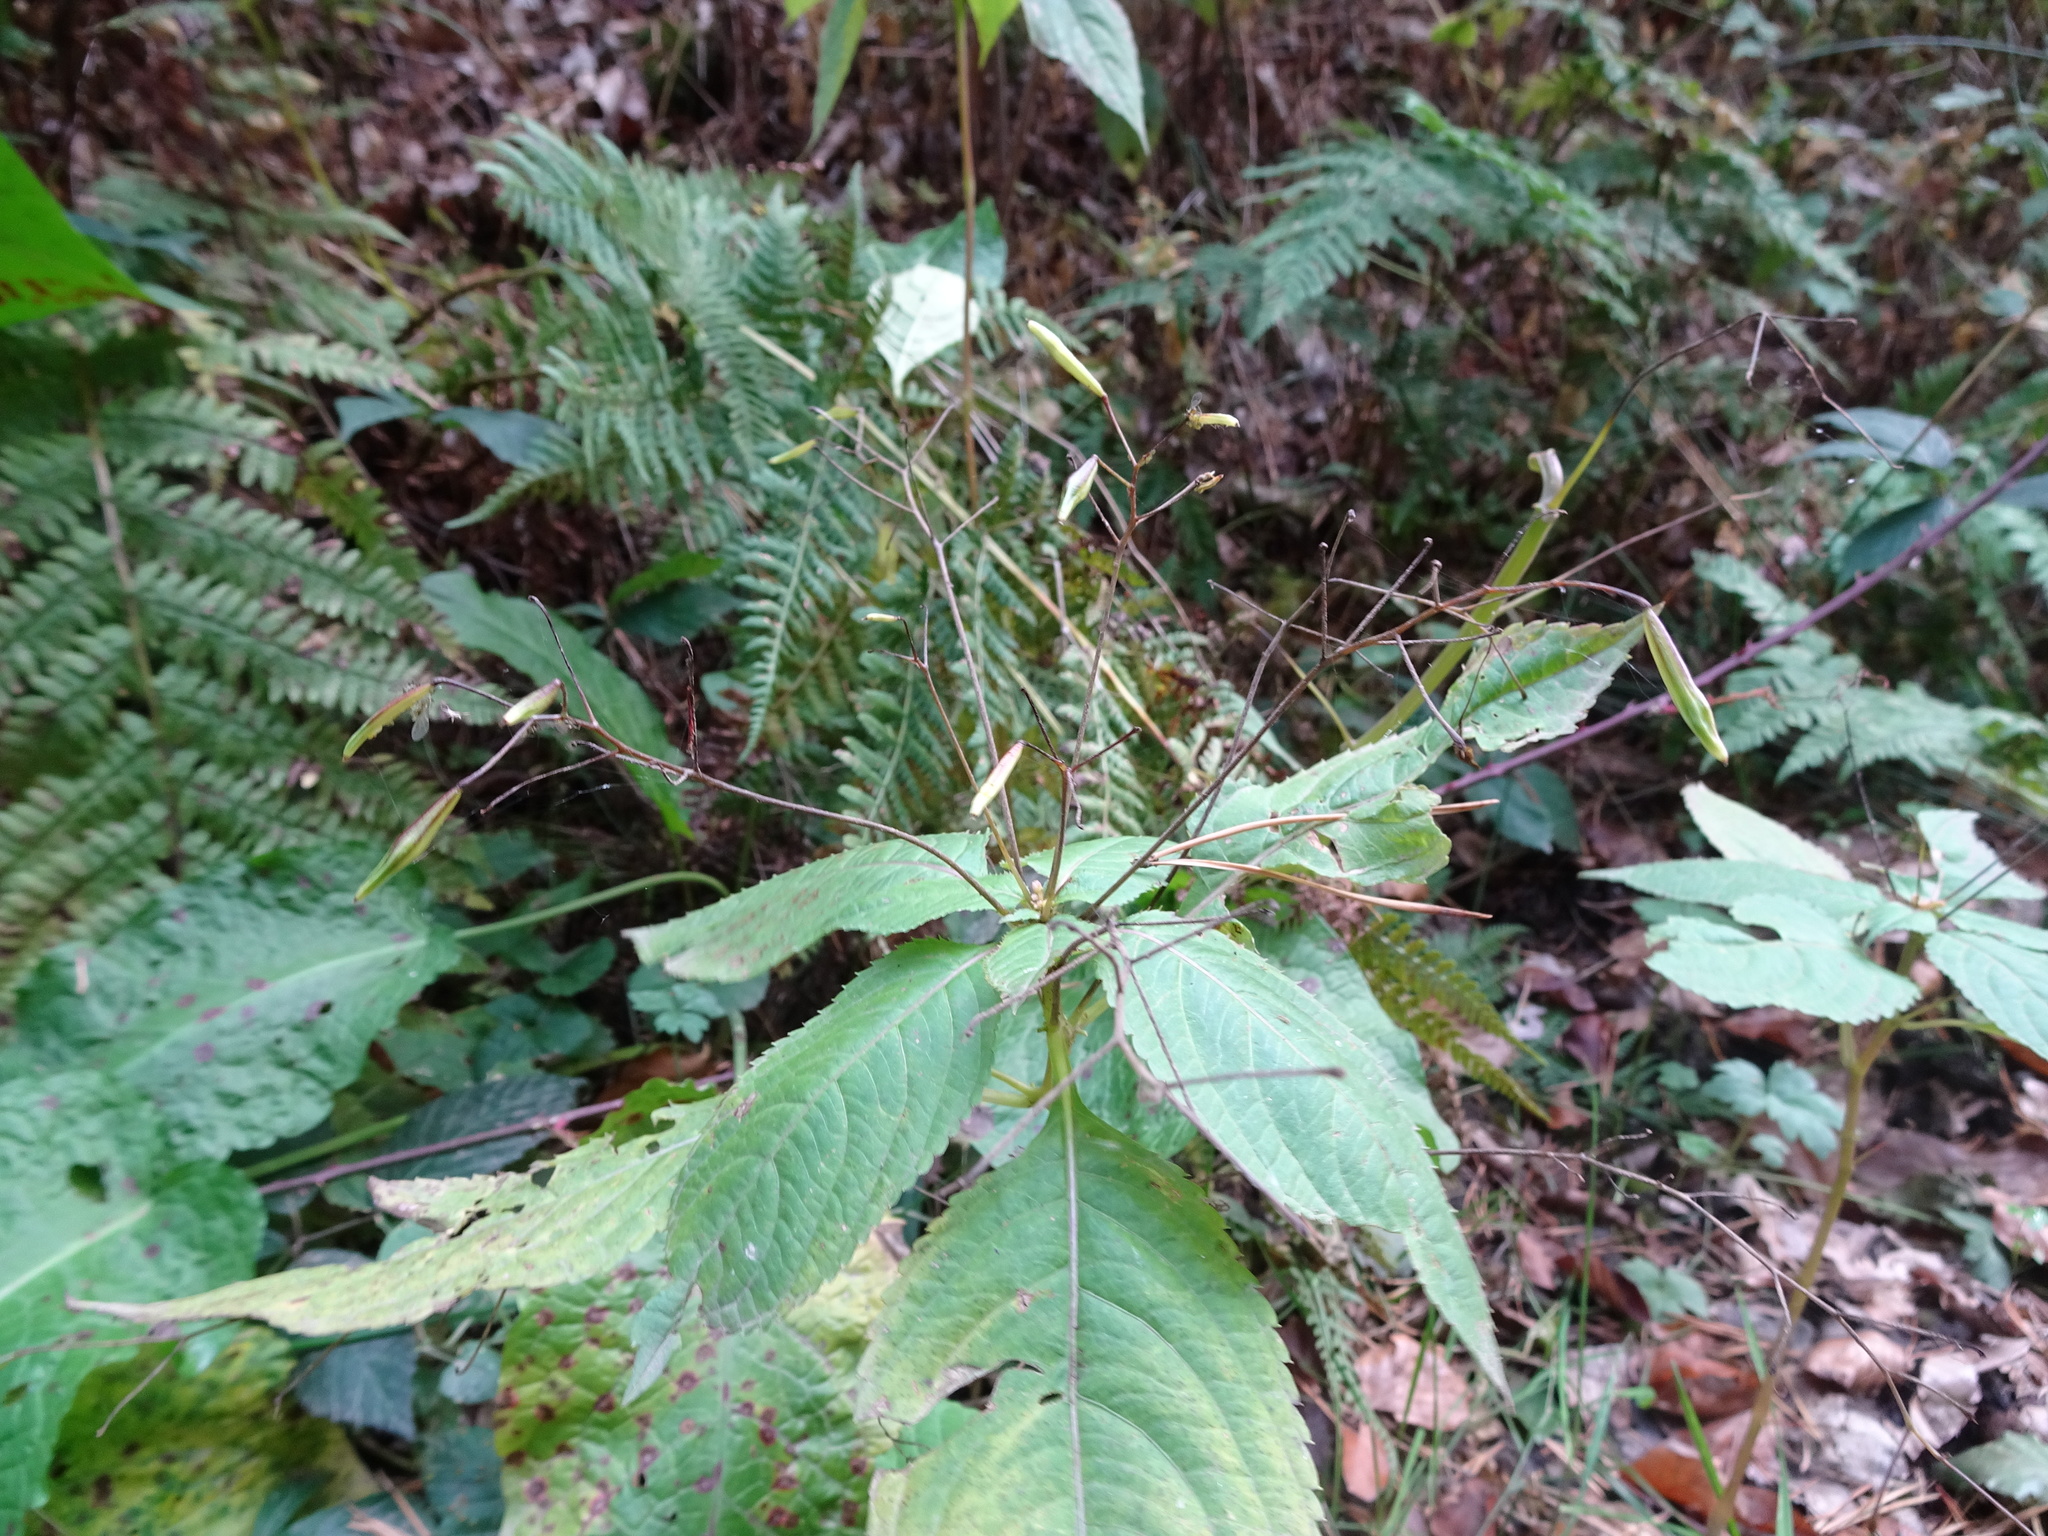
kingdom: Plantae
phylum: Tracheophyta
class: Magnoliopsida
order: Ericales
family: Balsaminaceae
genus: Impatiens
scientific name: Impatiens parviflora
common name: Small balsam
